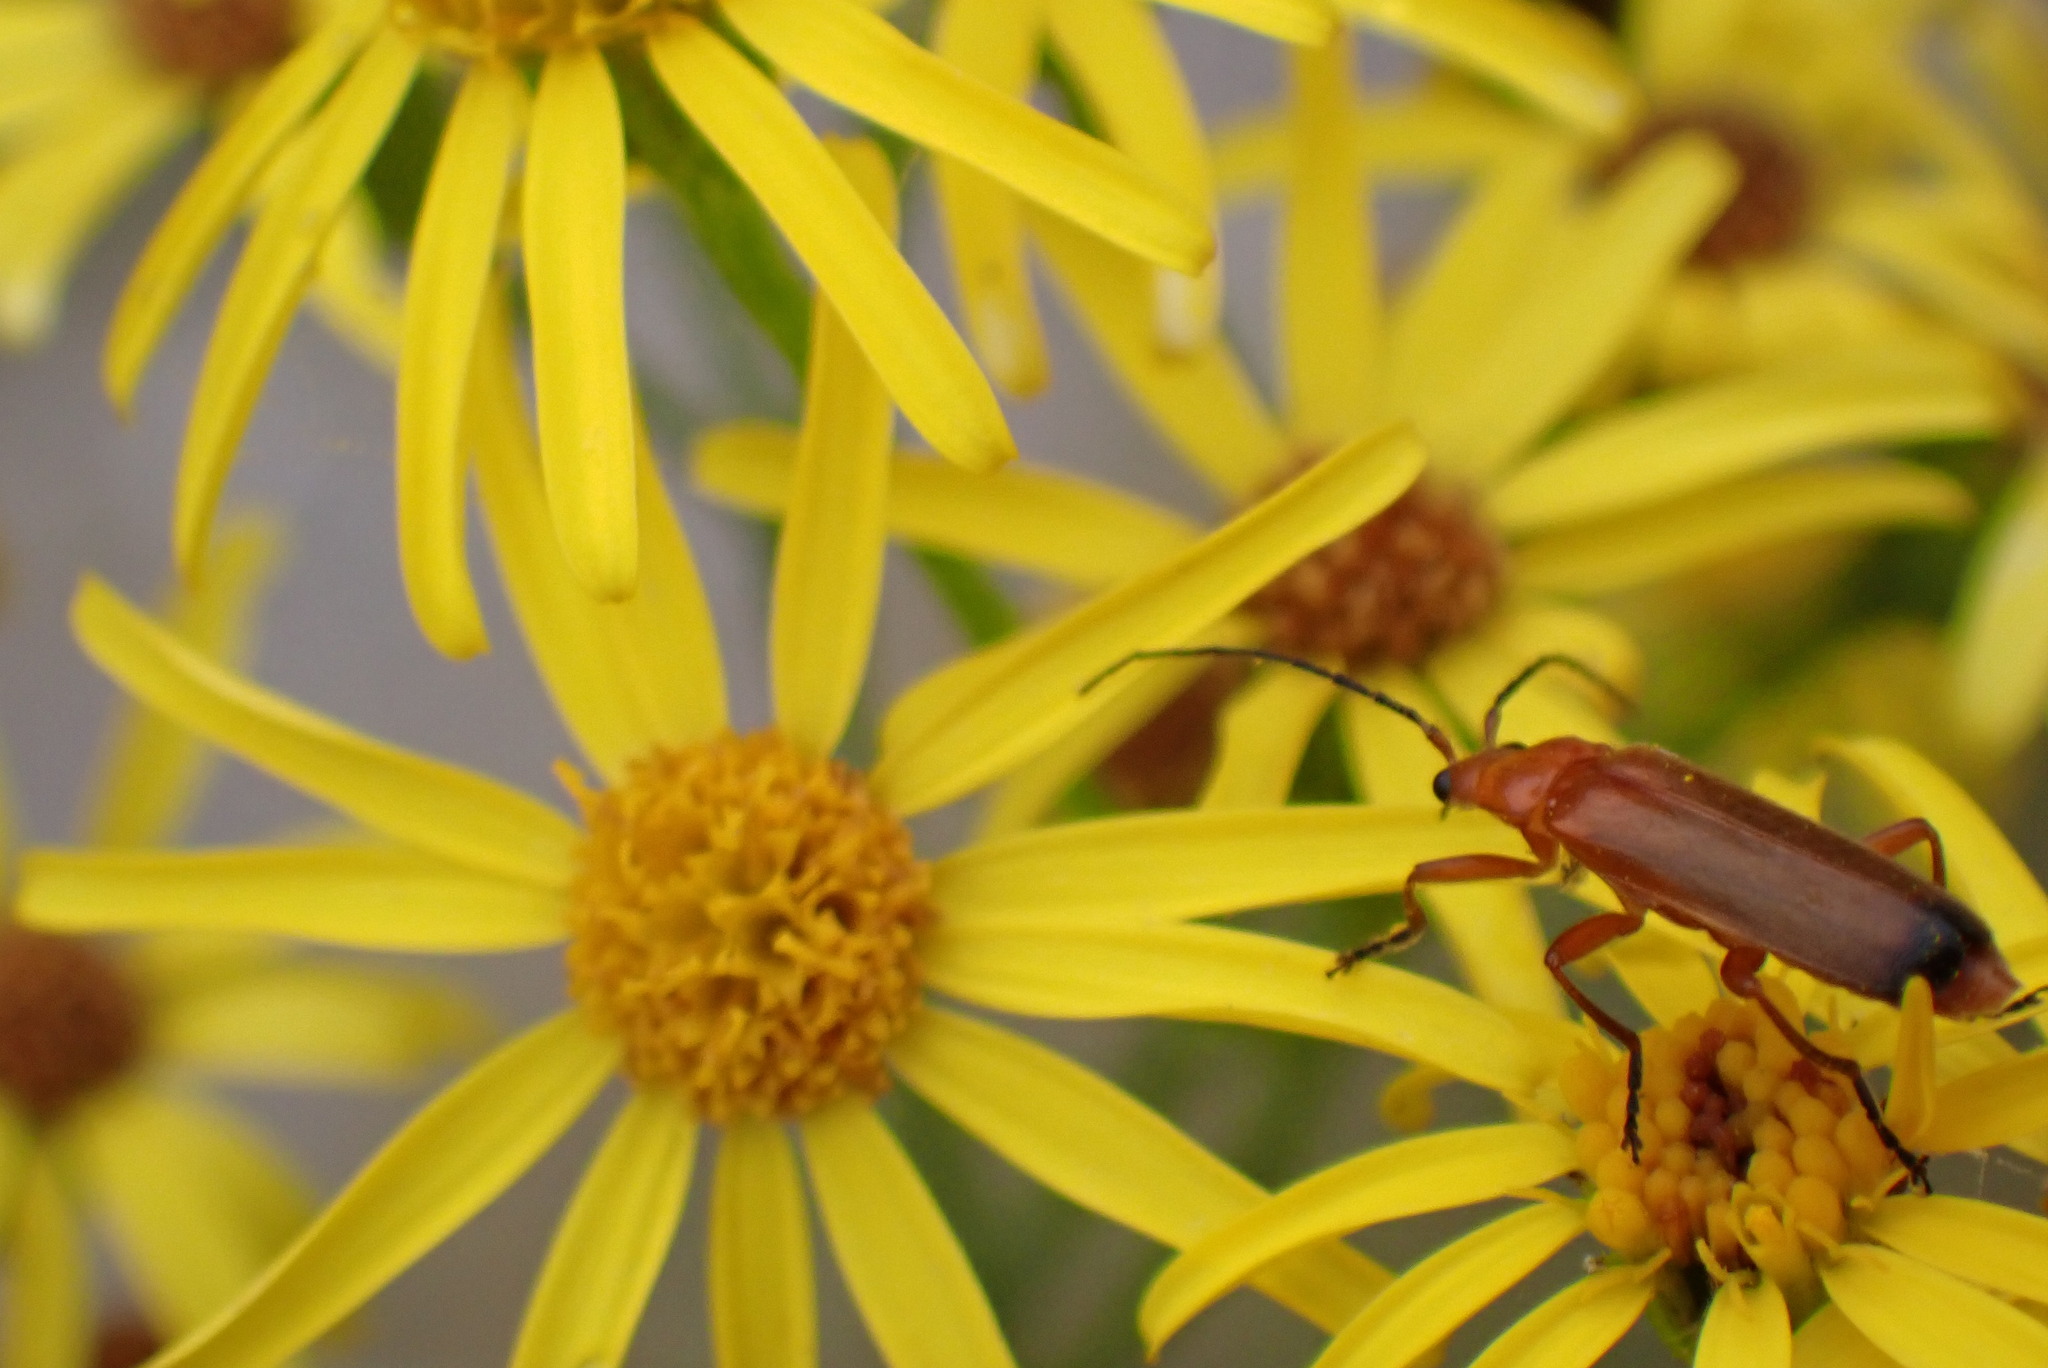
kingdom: Animalia
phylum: Arthropoda
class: Insecta
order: Coleoptera
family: Cantharidae
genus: Rhagonycha
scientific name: Rhagonycha fulva
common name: Common red soldier beetle
